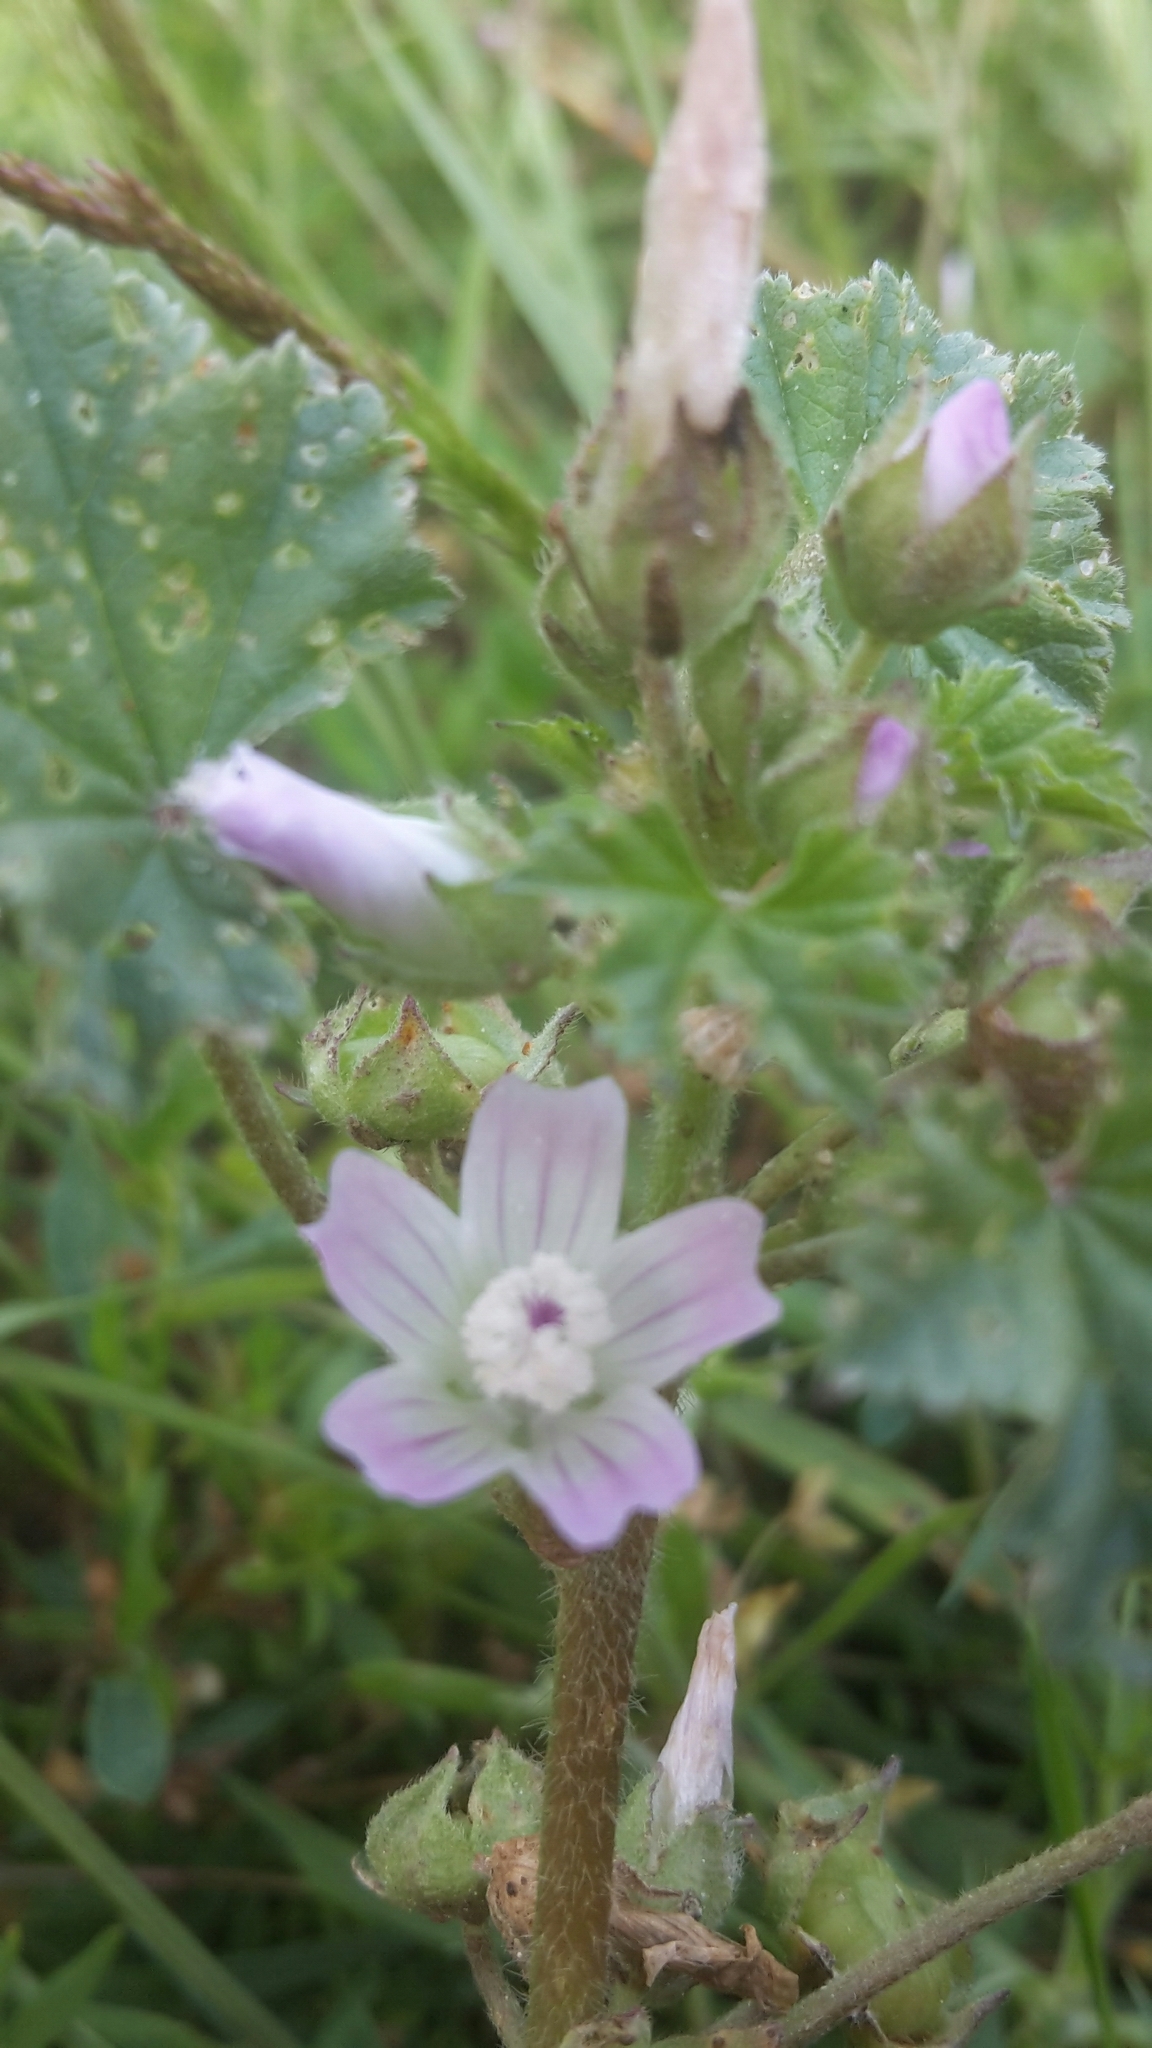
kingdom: Plantae
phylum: Tracheophyta
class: Magnoliopsida
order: Malvales
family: Malvaceae
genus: Malva
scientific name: Malva neglecta
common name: Common mallow
